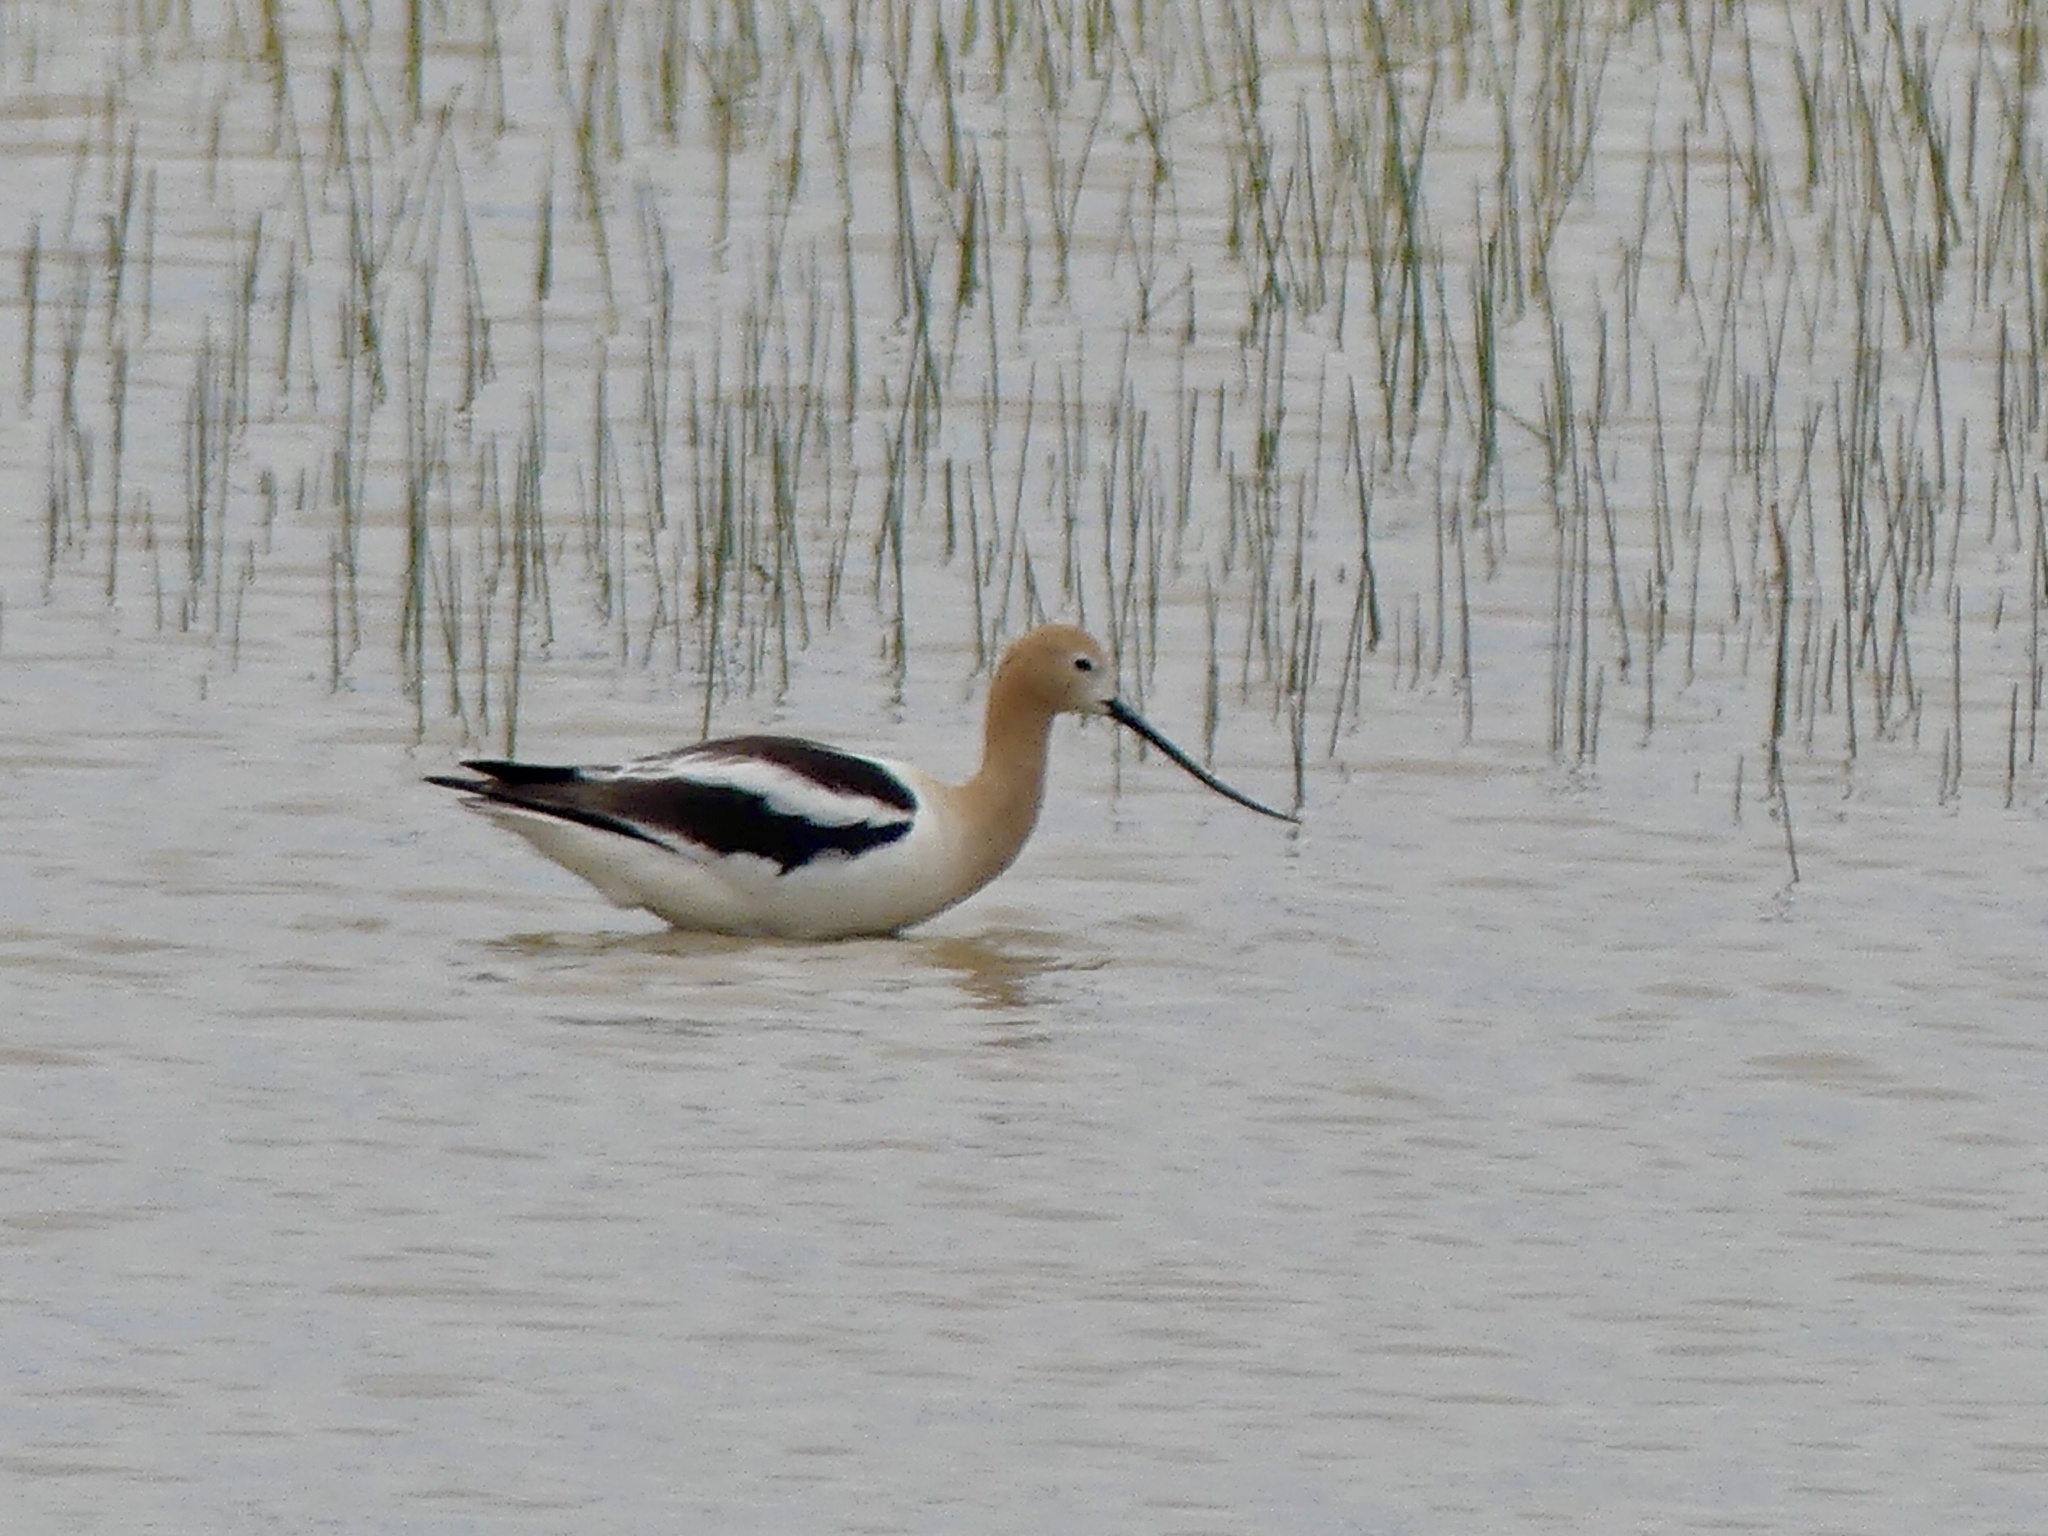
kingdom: Animalia
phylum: Chordata
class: Aves
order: Charadriiformes
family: Recurvirostridae
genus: Recurvirostra
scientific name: Recurvirostra americana
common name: American avocet
